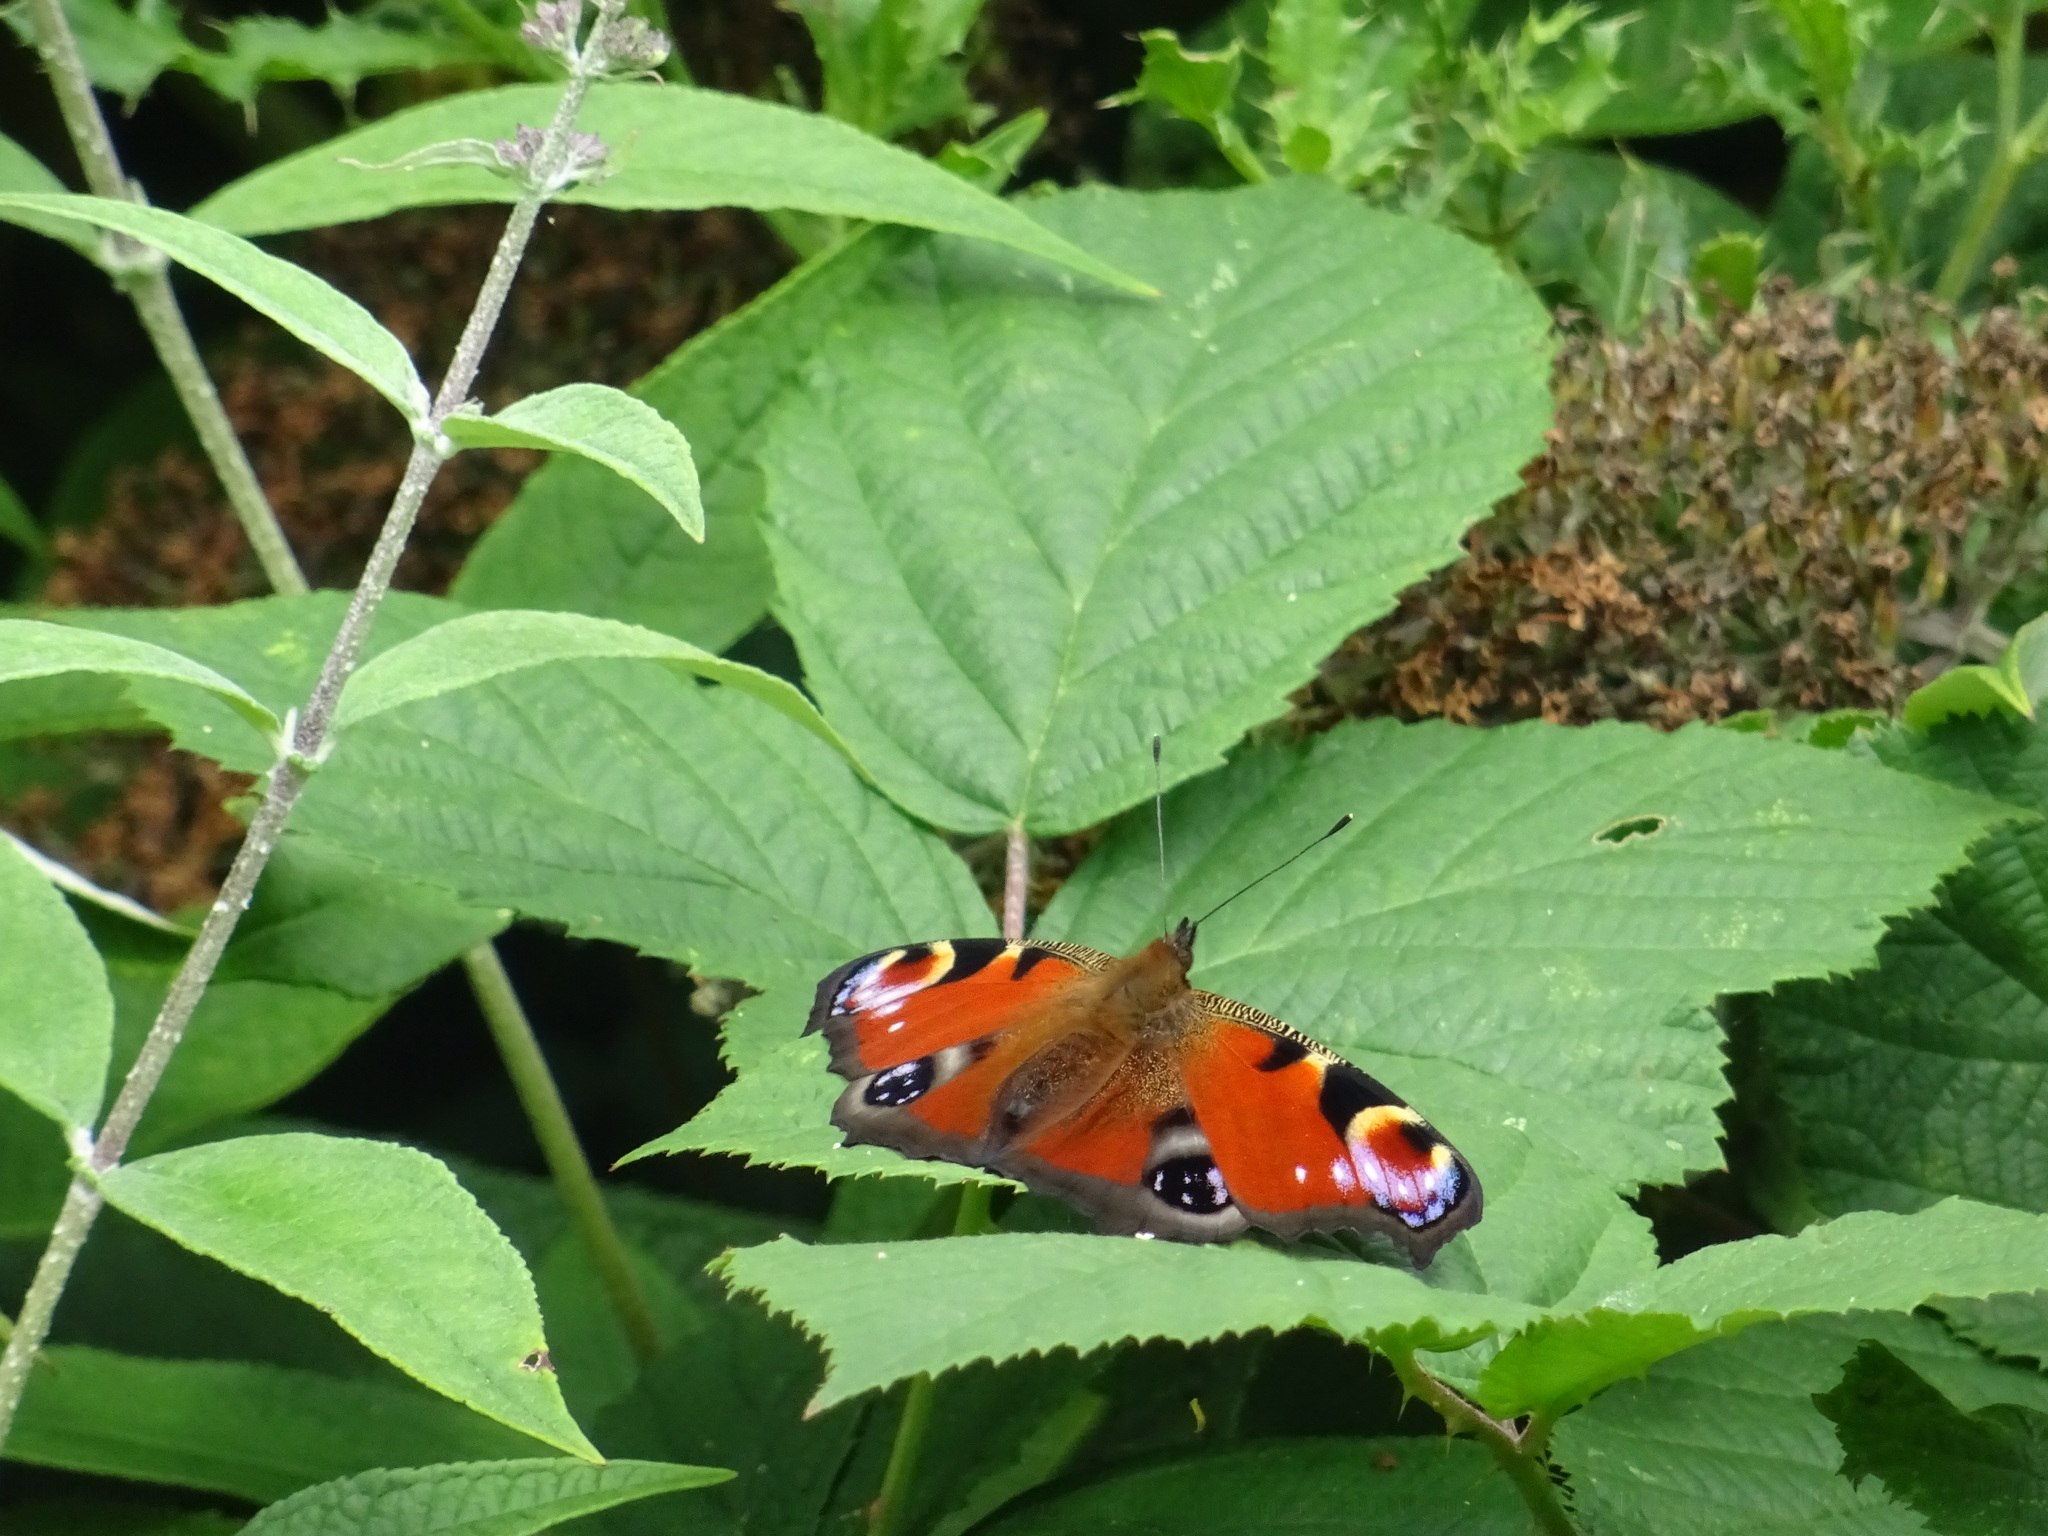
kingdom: Animalia
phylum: Arthropoda
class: Insecta
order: Lepidoptera
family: Nymphalidae
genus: Aglais
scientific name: Aglais io
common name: Peacock
